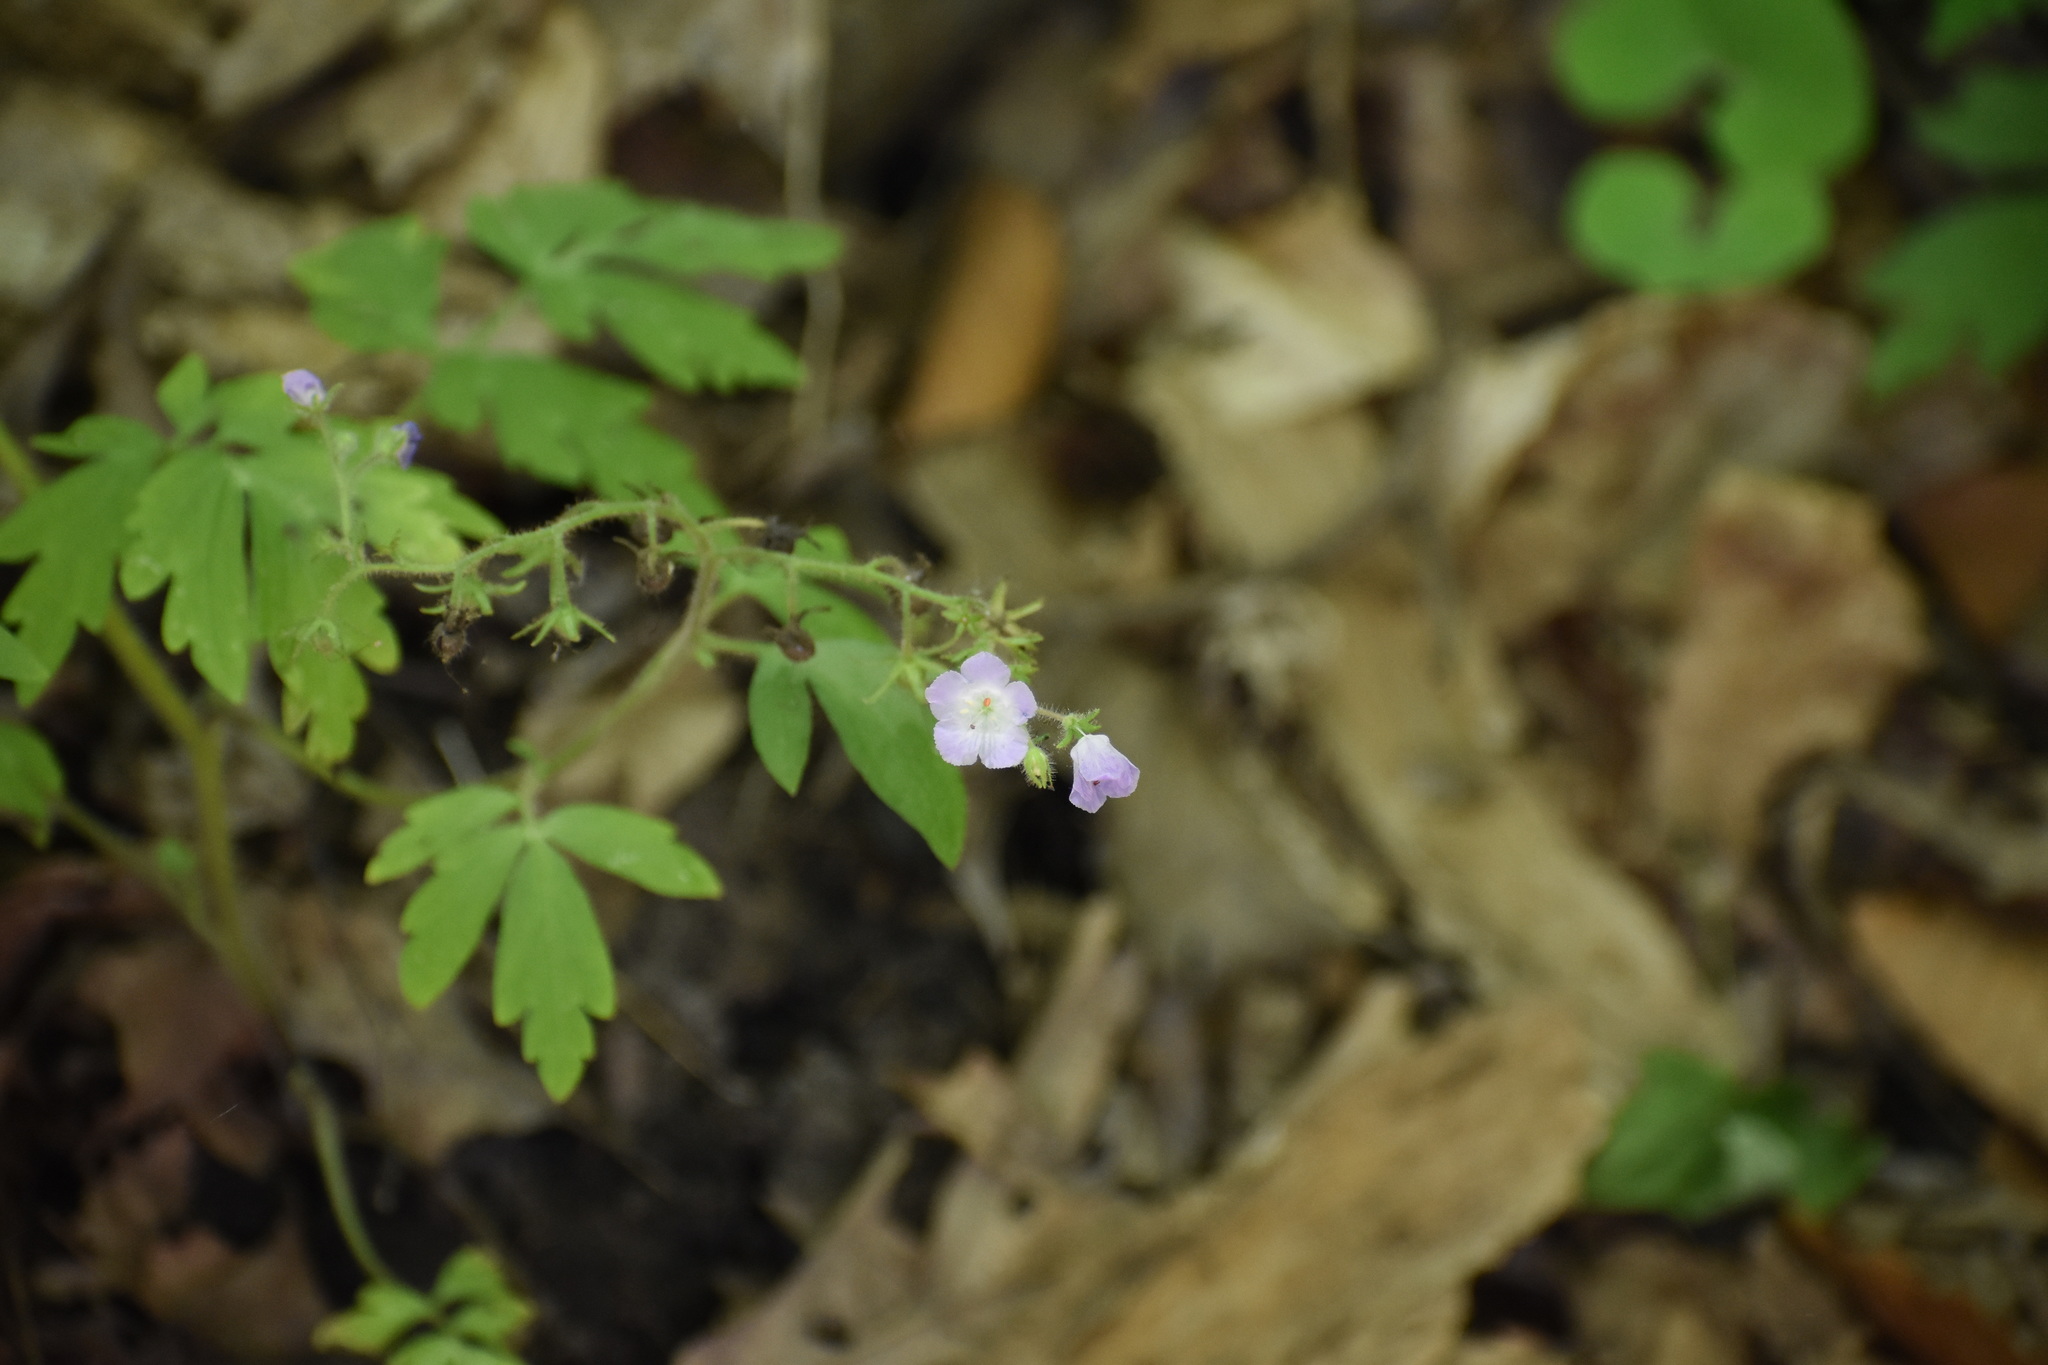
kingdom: Plantae
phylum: Tracheophyta
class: Magnoliopsida
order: Boraginales
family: Hydrophyllaceae
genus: Phacelia
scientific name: Phacelia bipinnatifida
